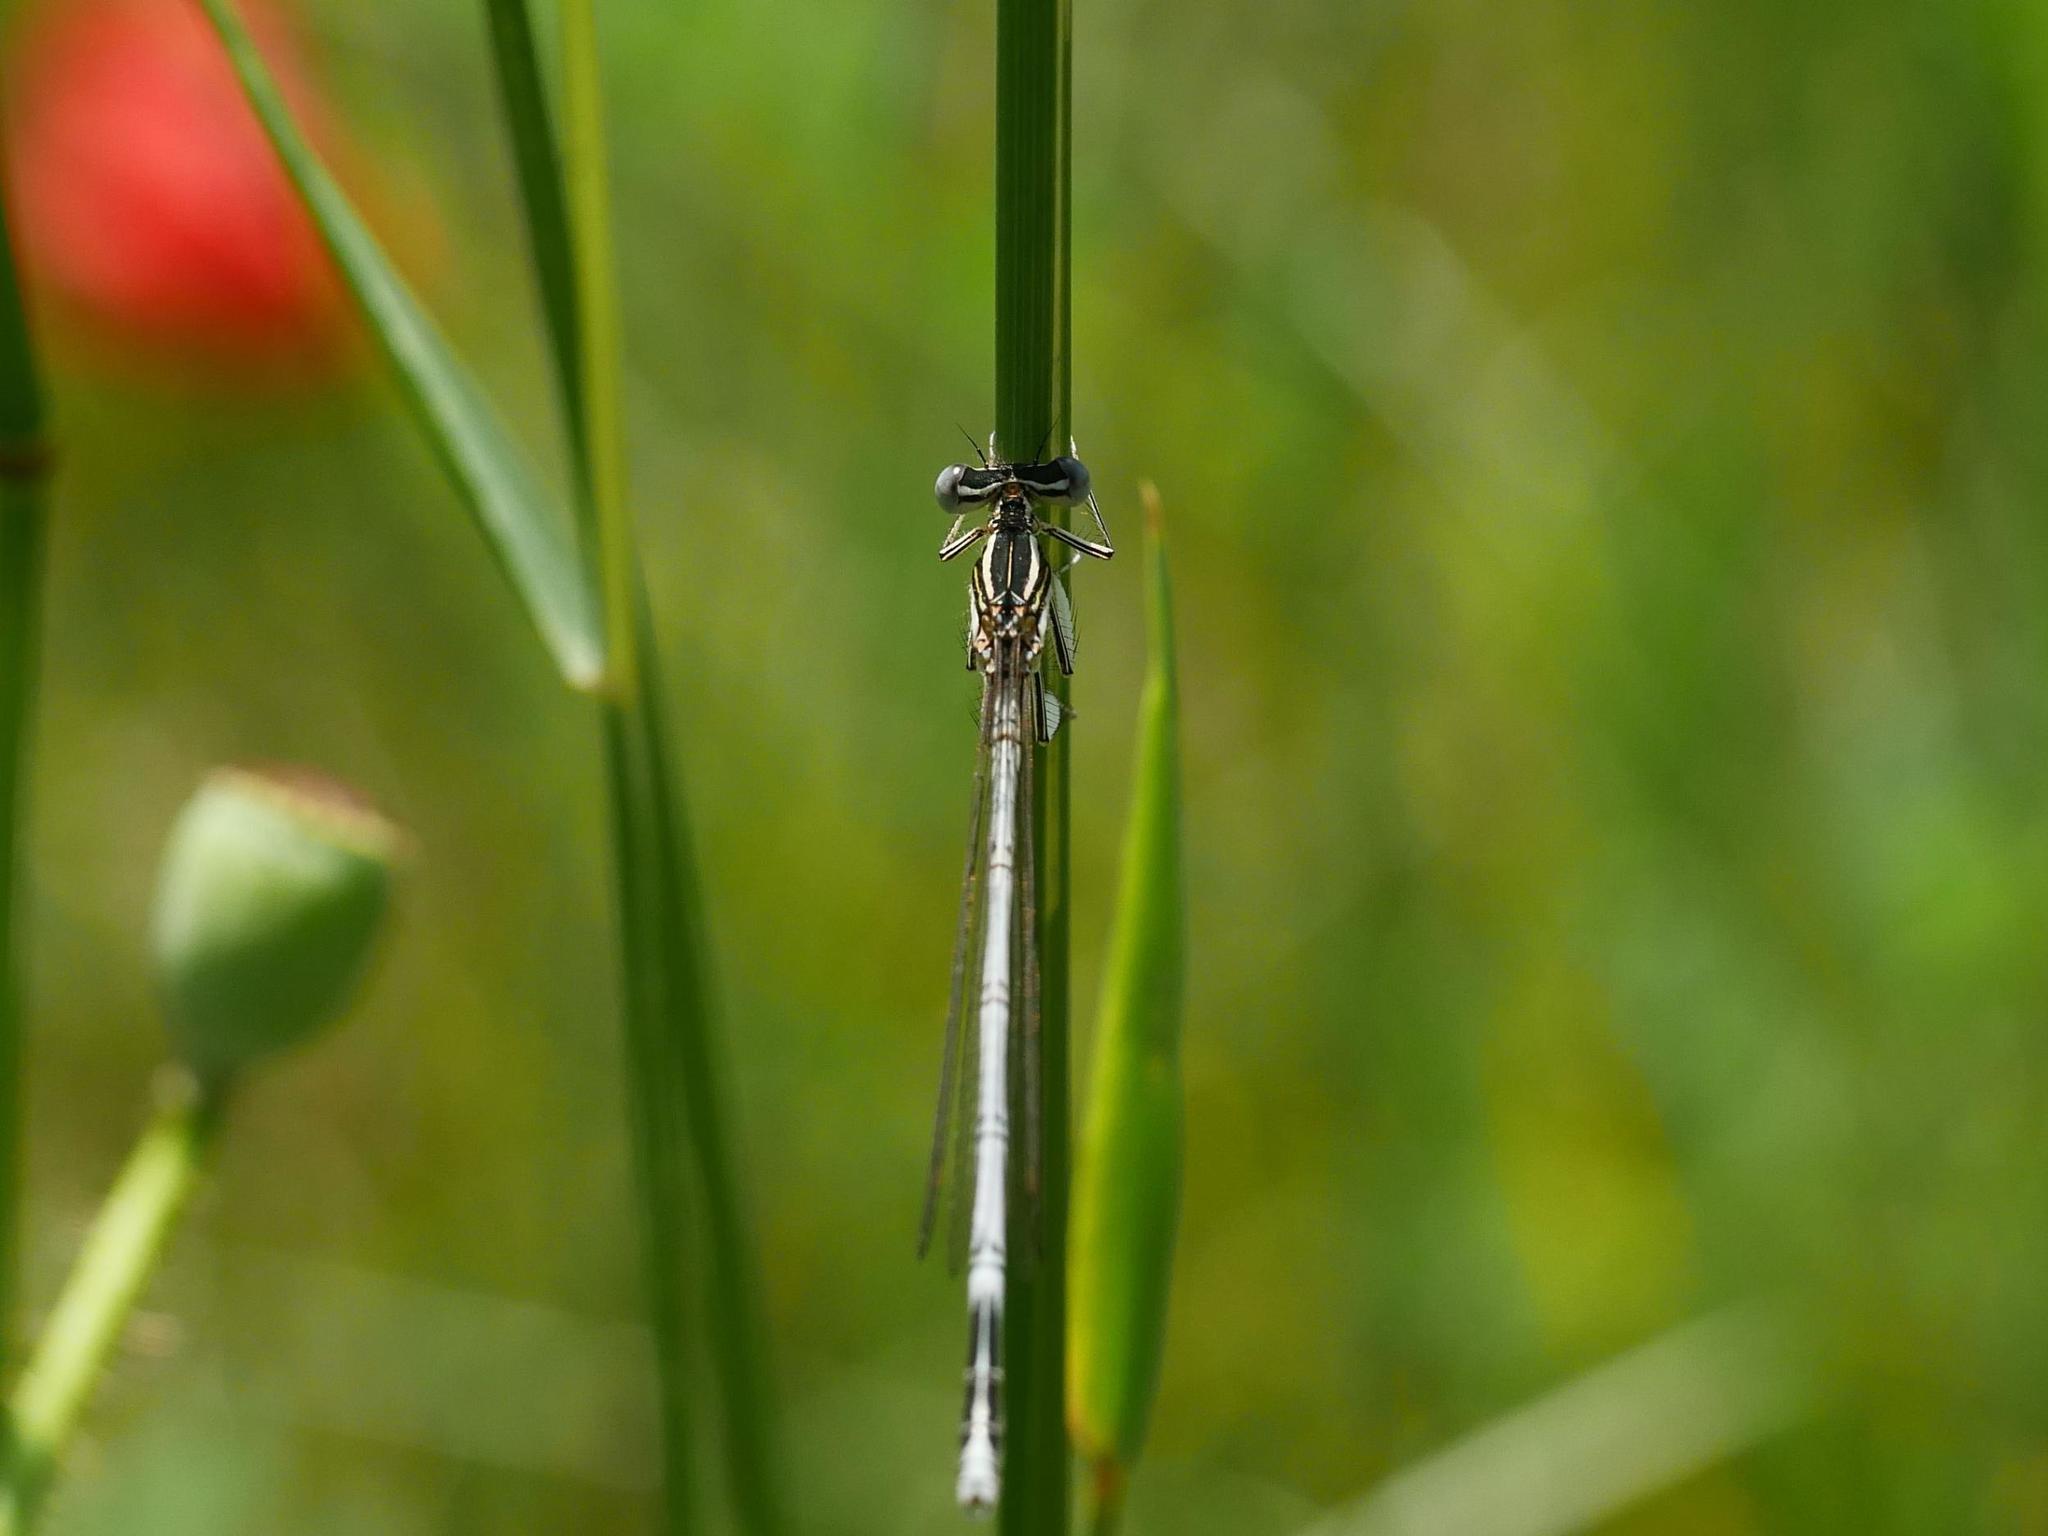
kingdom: Animalia
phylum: Arthropoda
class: Insecta
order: Odonata
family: Platycnemididae
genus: Platycnemis
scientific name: Platycnemis pennipes
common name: White-legged damselfly
